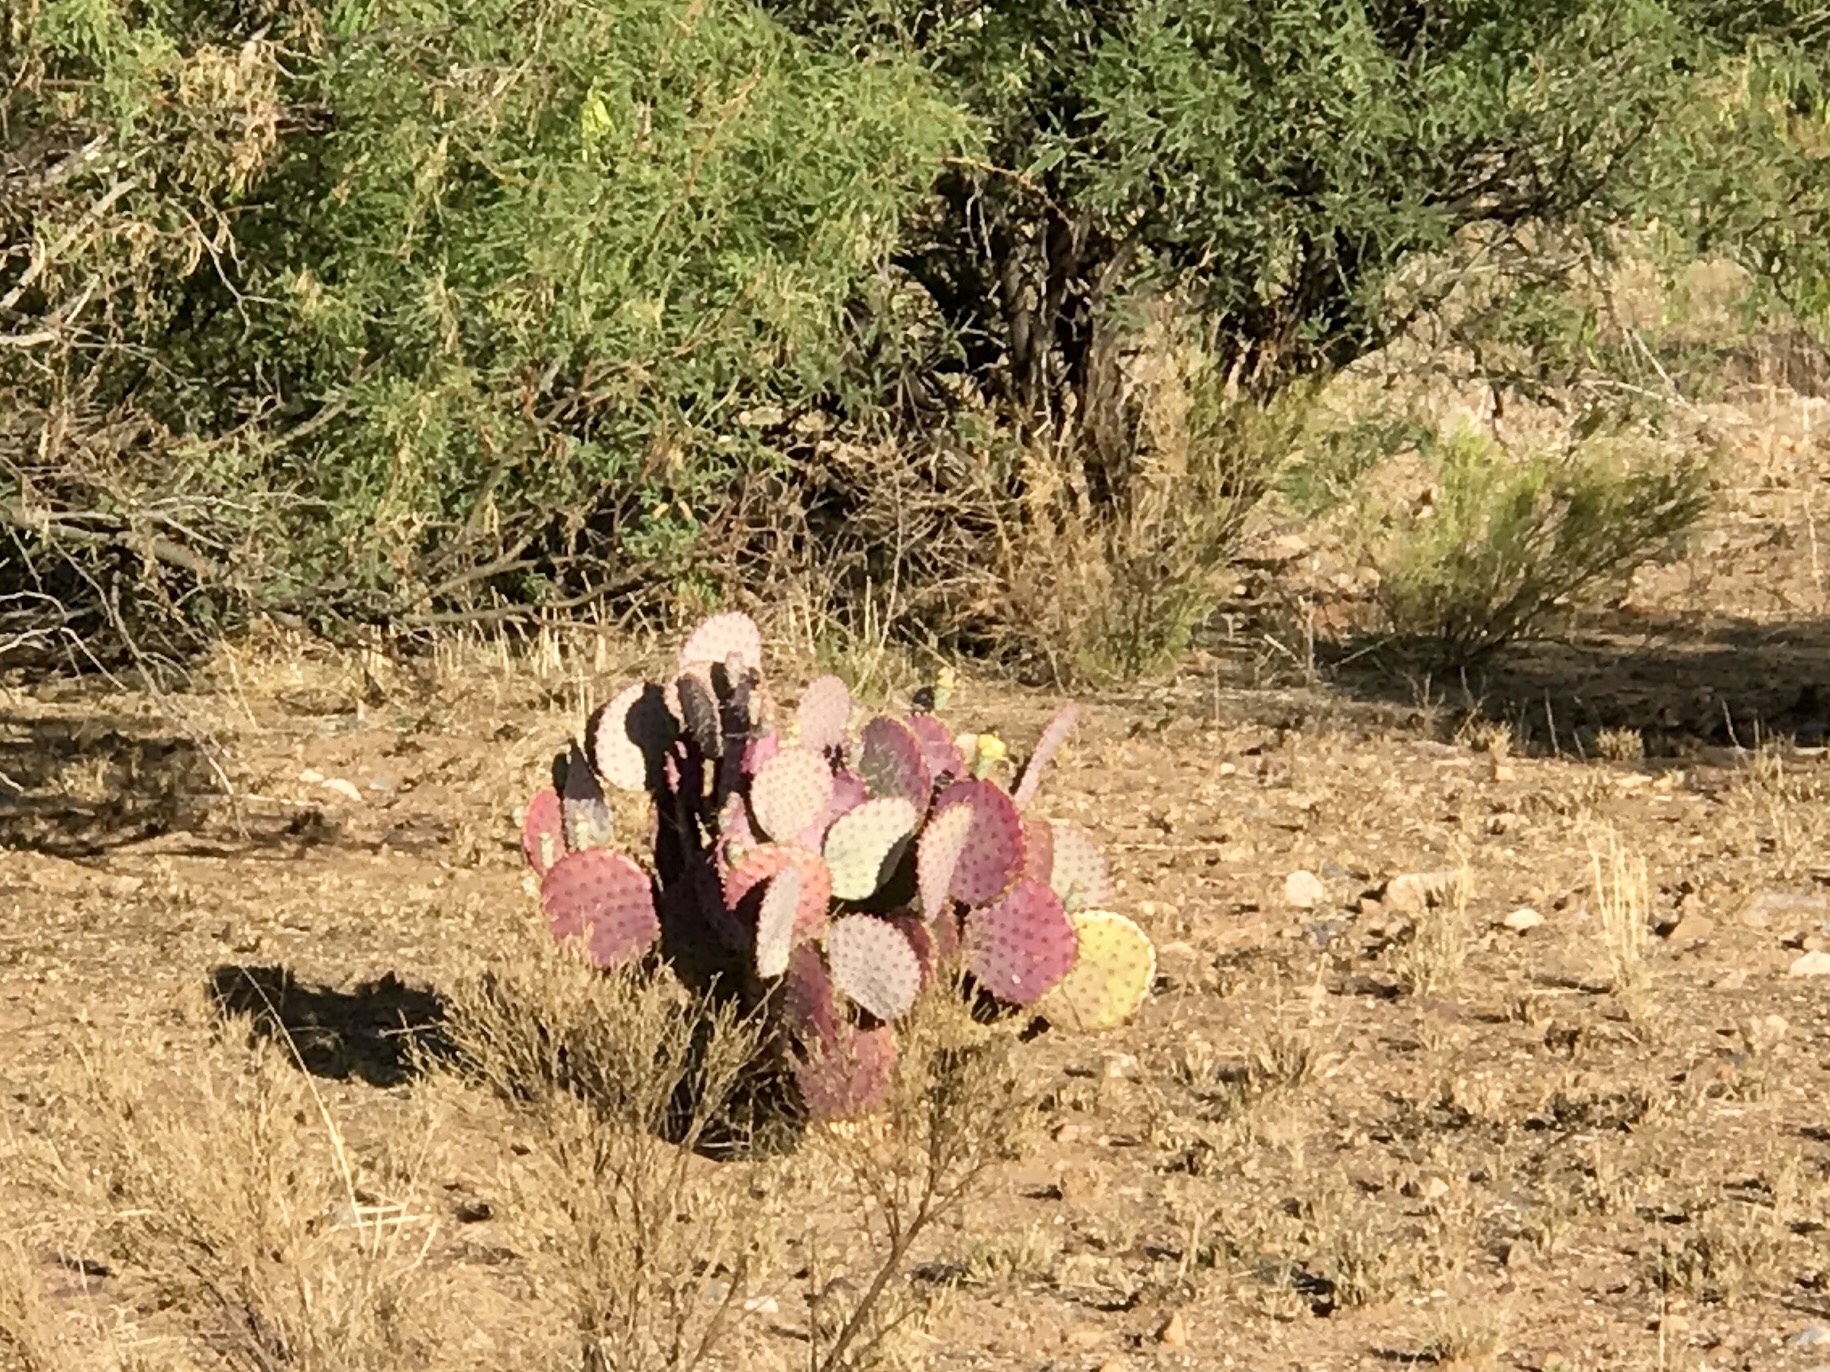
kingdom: Plantae
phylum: Tracheophyta
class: Magnoliopsida
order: Caryophyllales
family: Cactaceae
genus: Opuntia
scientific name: Opuntia macrocentra
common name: Purple prickly-pear
